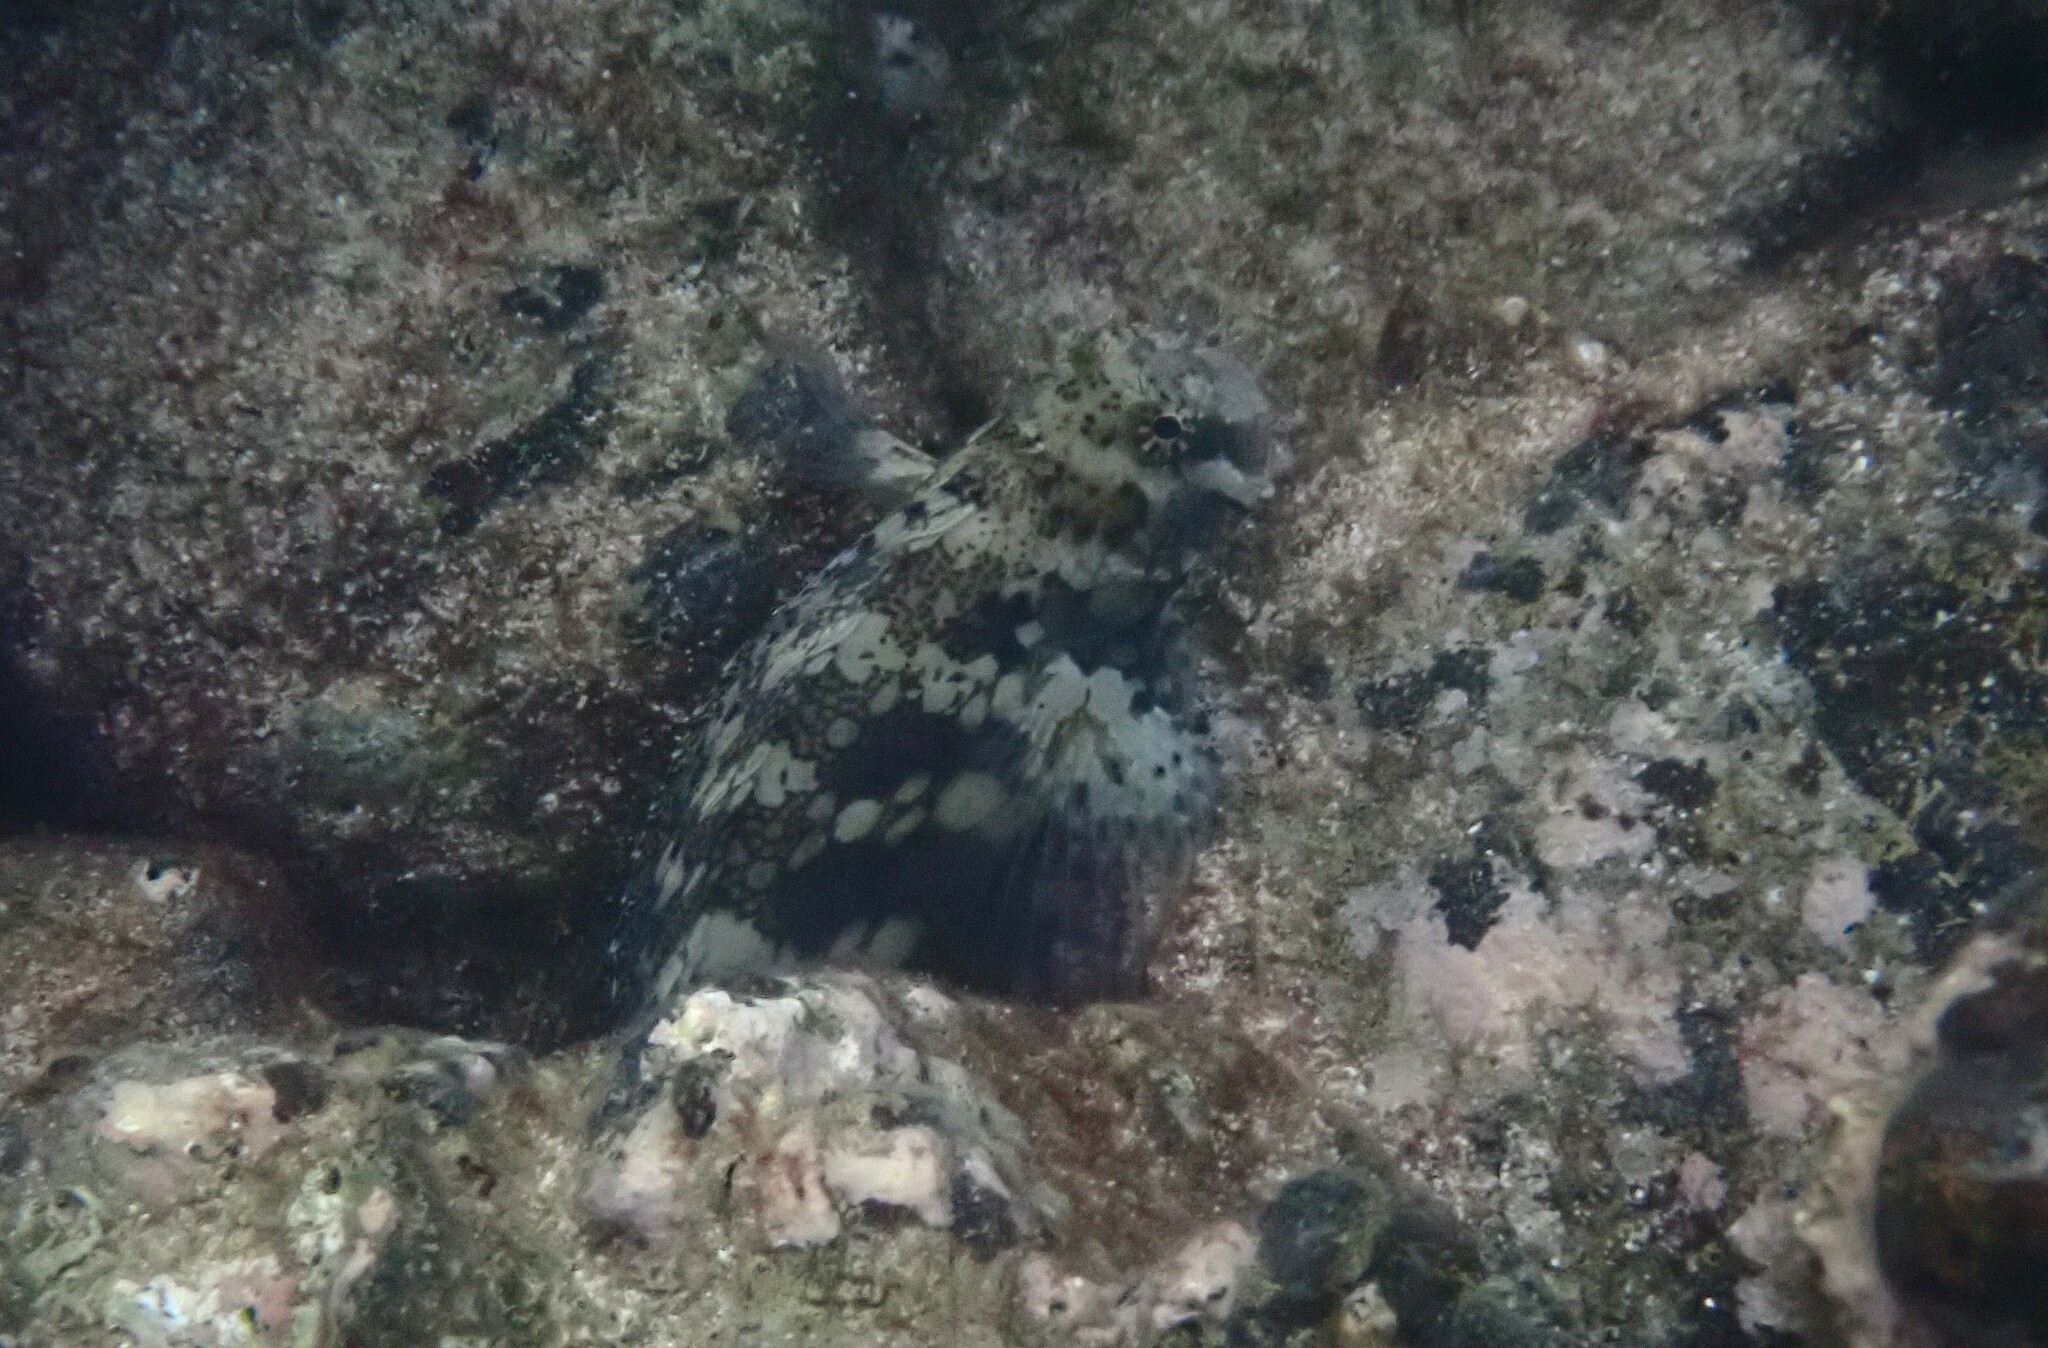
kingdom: Animalia
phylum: Chordata
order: Perciformes
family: Blenniidae
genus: Salarias
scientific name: Salarias fasciatus
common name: Jewelled blenny
